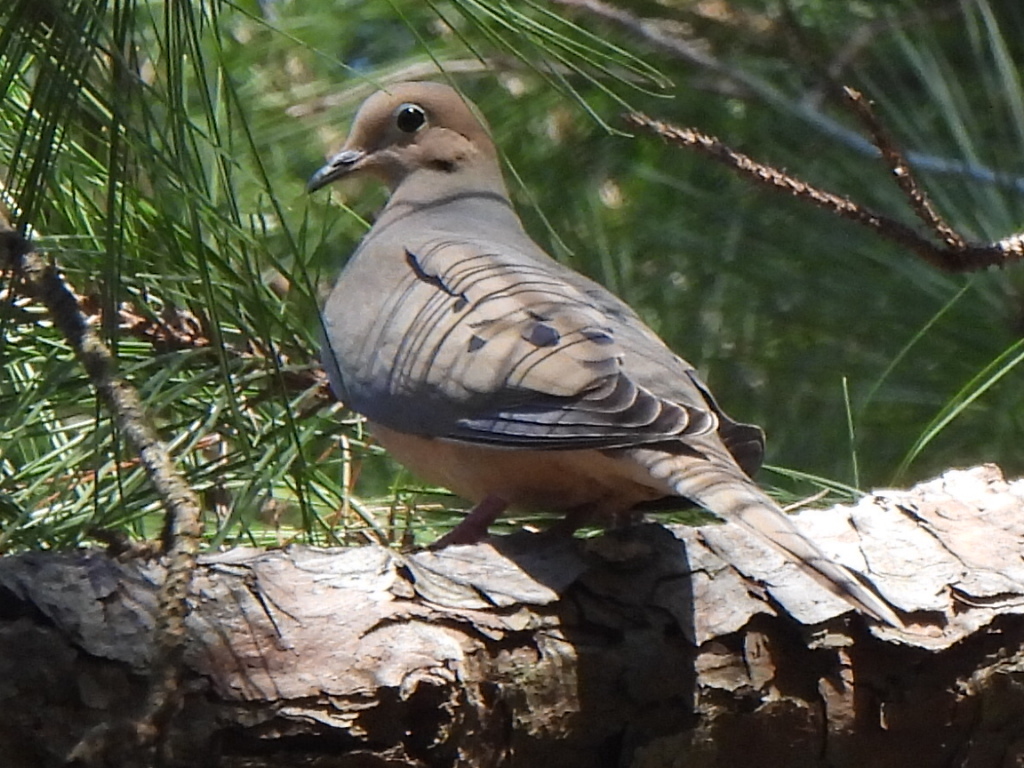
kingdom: Animalia
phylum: Chordata
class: Aves
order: Columbiformes
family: Columbidae
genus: Zenaida
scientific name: Zenaida macroura
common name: Mourning dove
